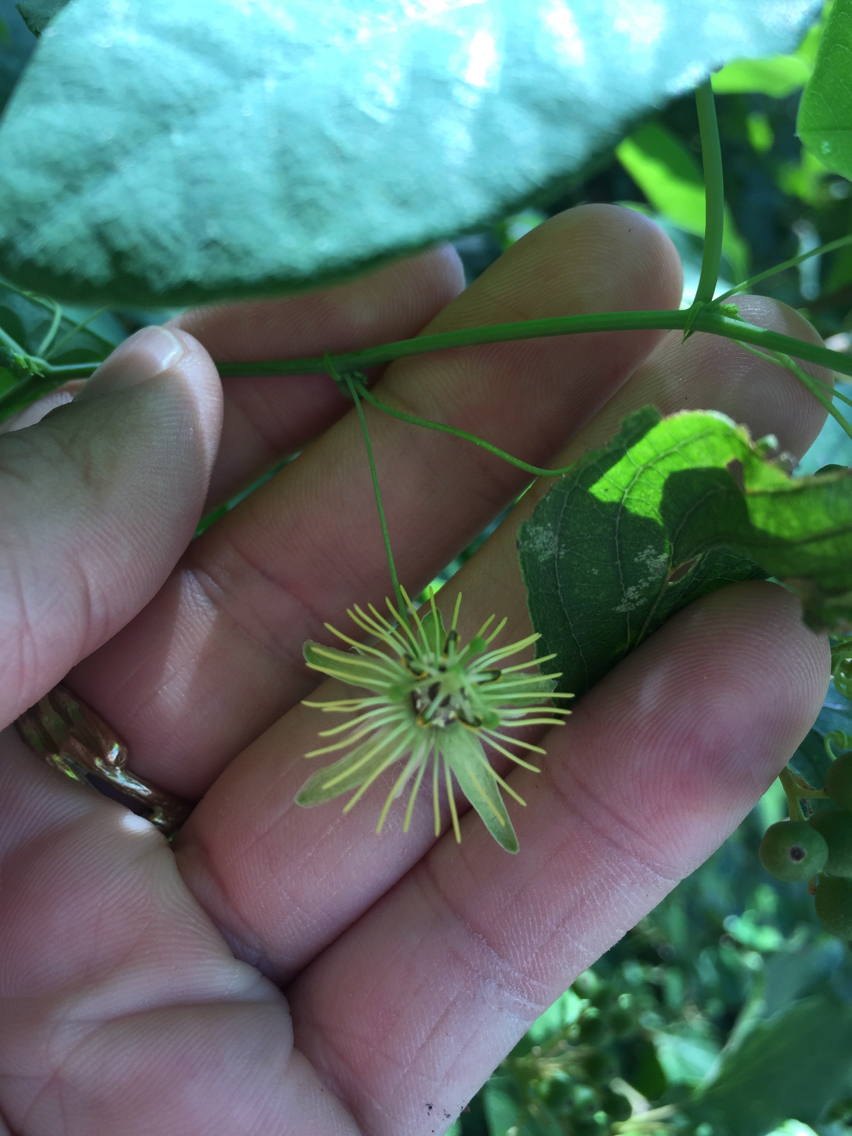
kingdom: Plantae
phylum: Tracheophyta
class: Magnoliopsida
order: Malpighiales
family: Passifloraceae
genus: Passiflora
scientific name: Passiflora lutea
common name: Yellow passionflower
